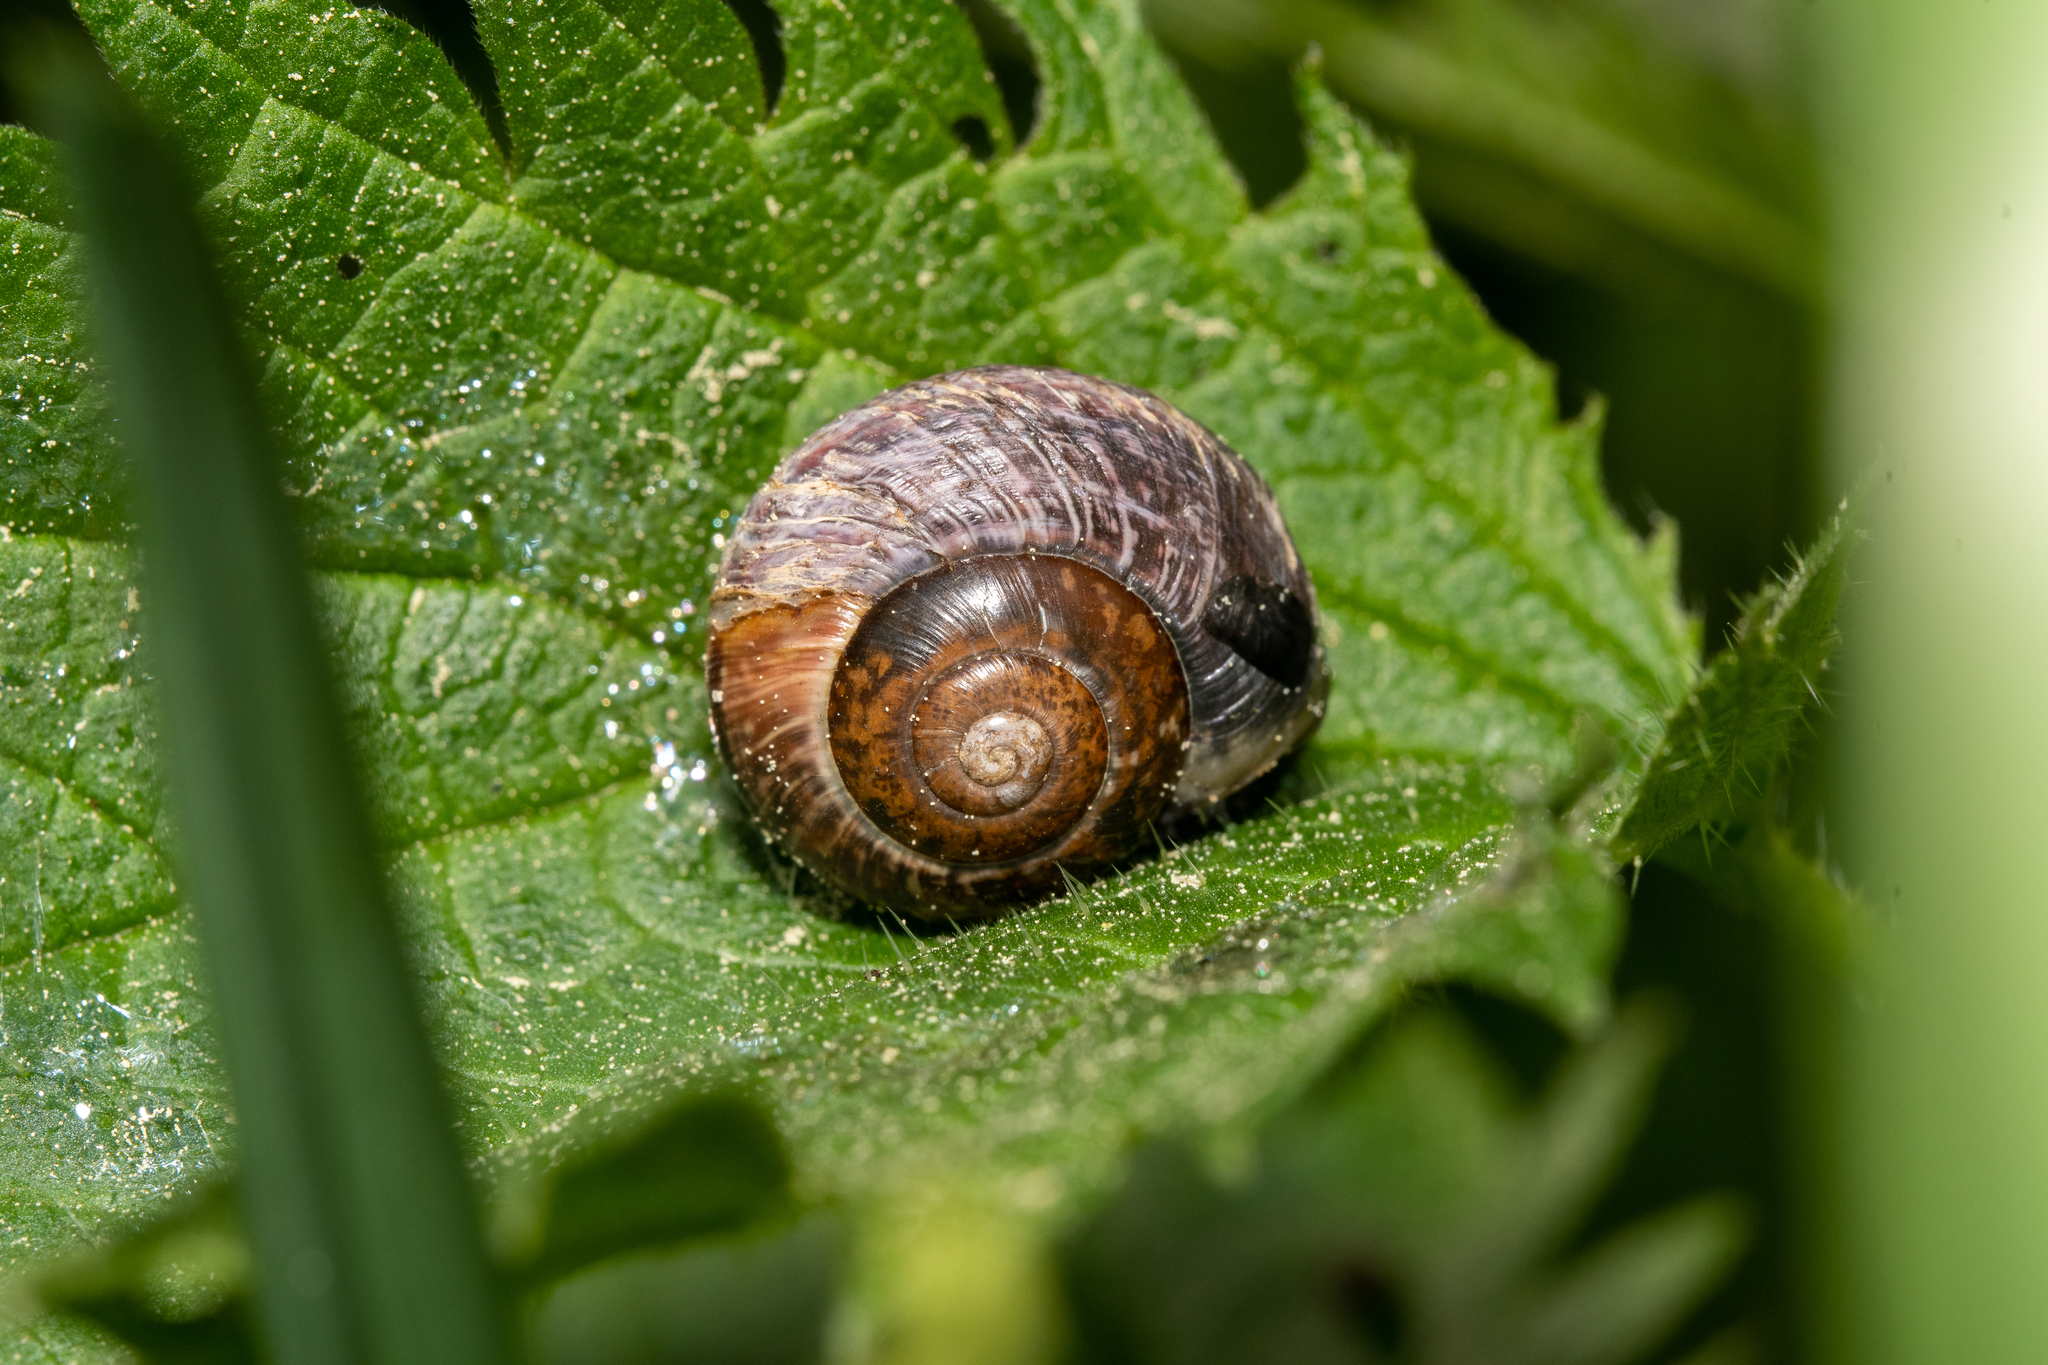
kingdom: Animalia
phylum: Mollusca
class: Gastropoda
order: Stylommatophora
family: Helicidae
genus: Arianta
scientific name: Arianta arbustorum
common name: Copse snail
